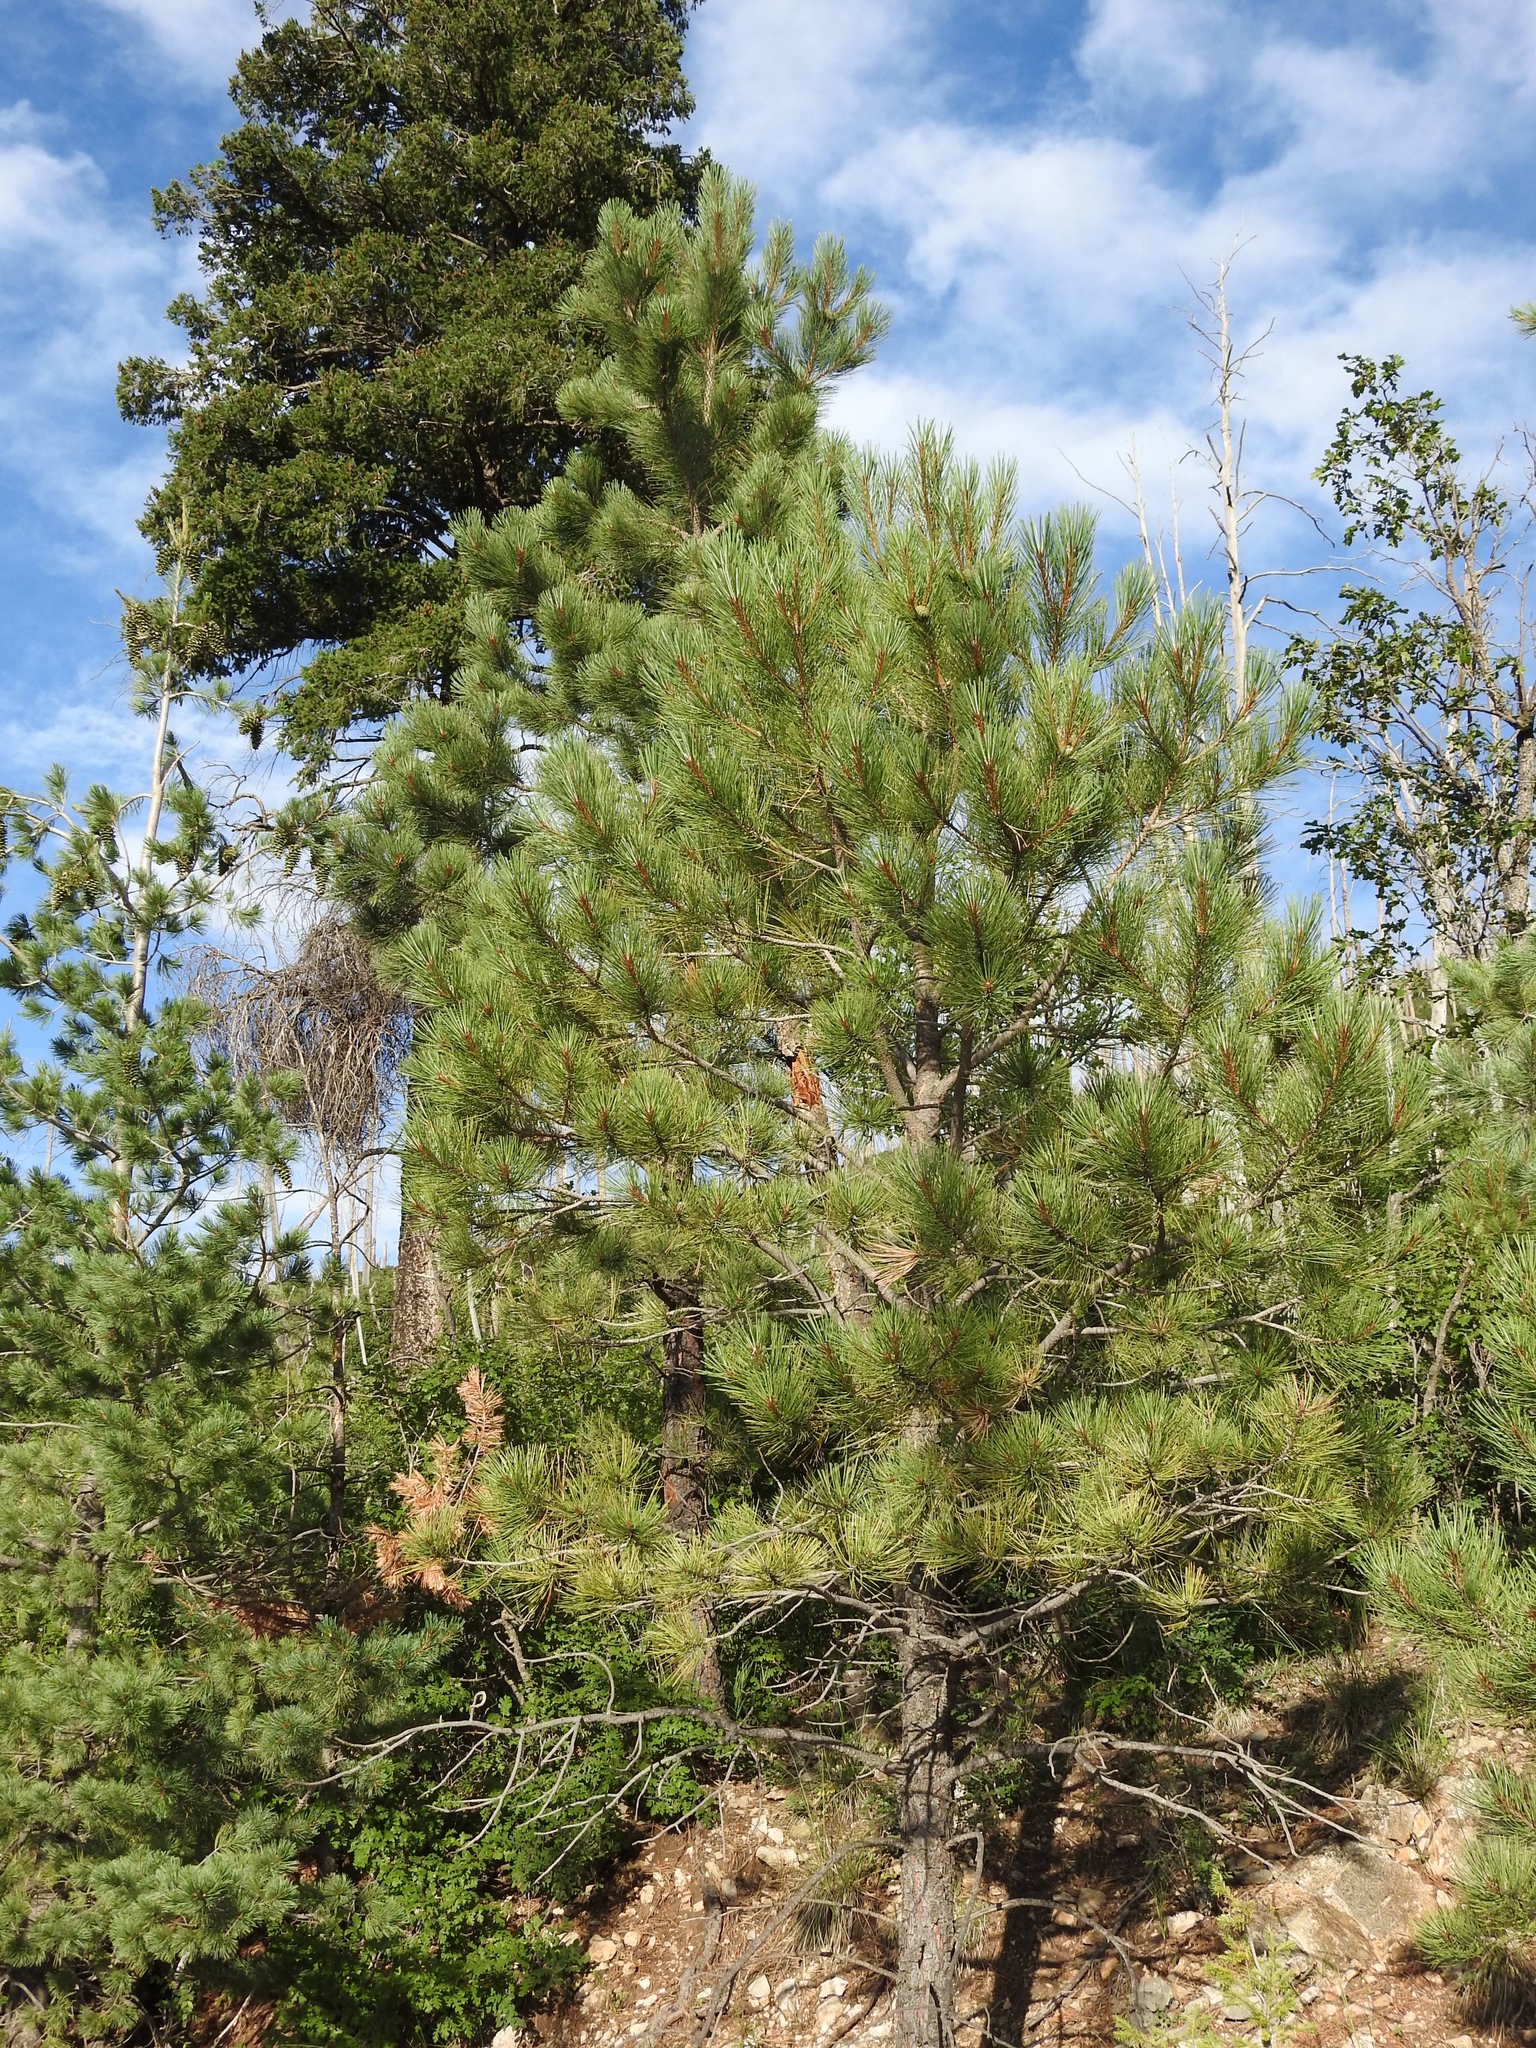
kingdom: Plantae
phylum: Tracheophyta
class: Pinopsida
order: Pinales
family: Pinaceae
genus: Pinus
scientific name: Pinus ponderosa
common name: Western yellow-pine
